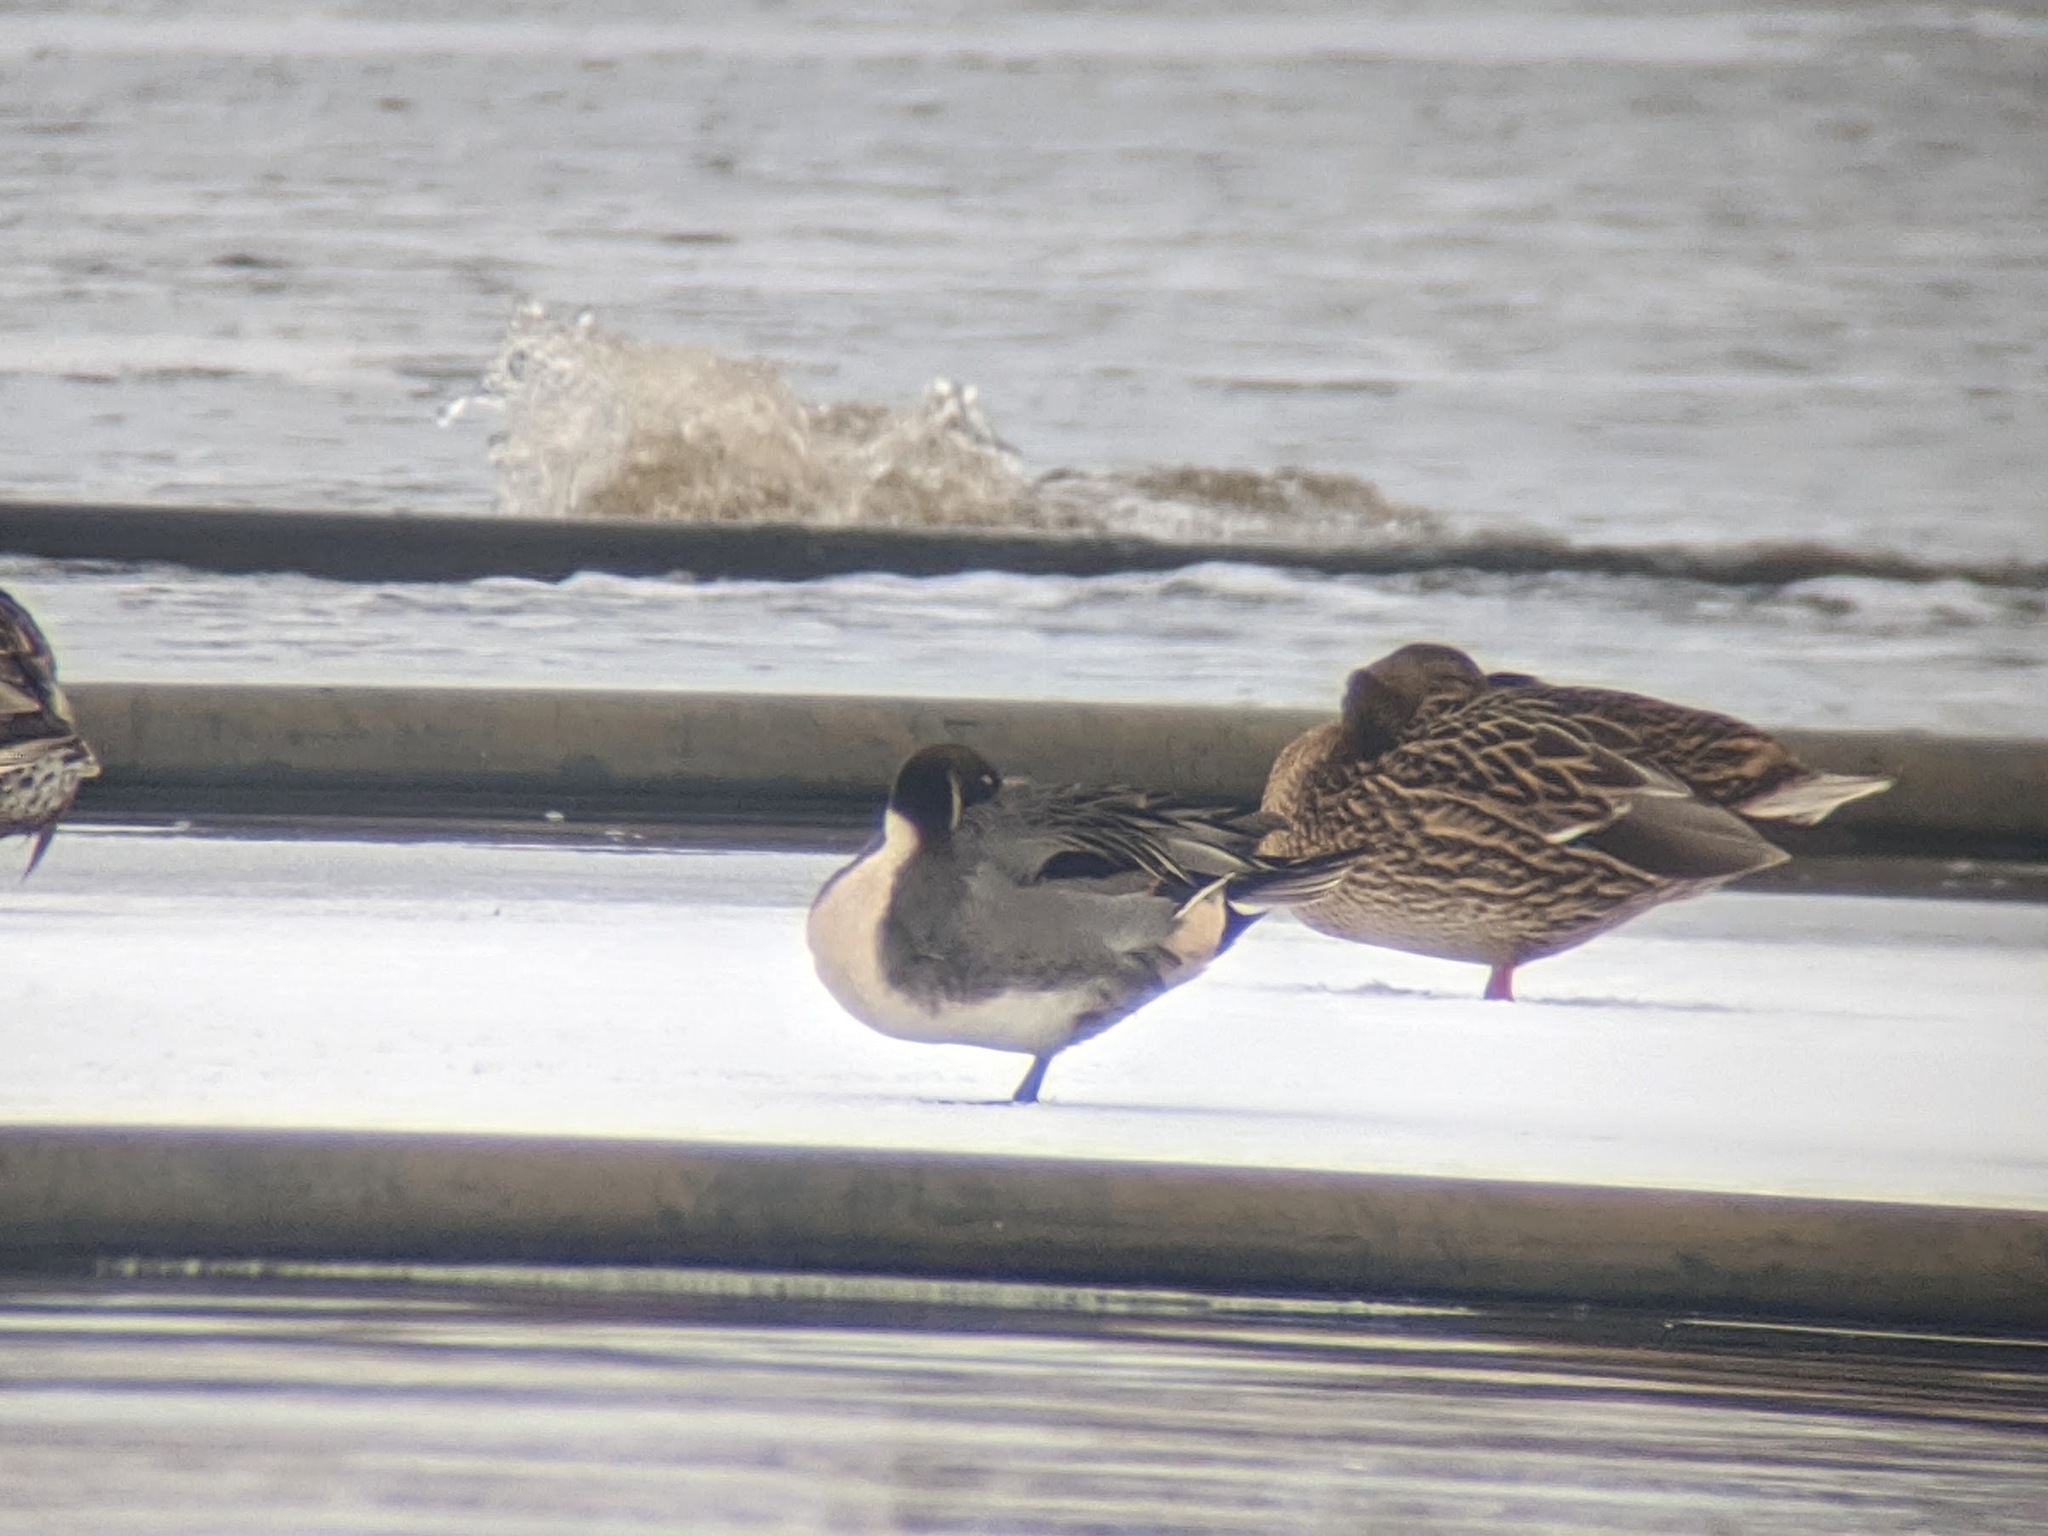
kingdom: Animalia
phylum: Chordata
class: Aves
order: Anseriformes
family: Anatidae
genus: Anas
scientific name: Anas acuta
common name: Northern pintail
